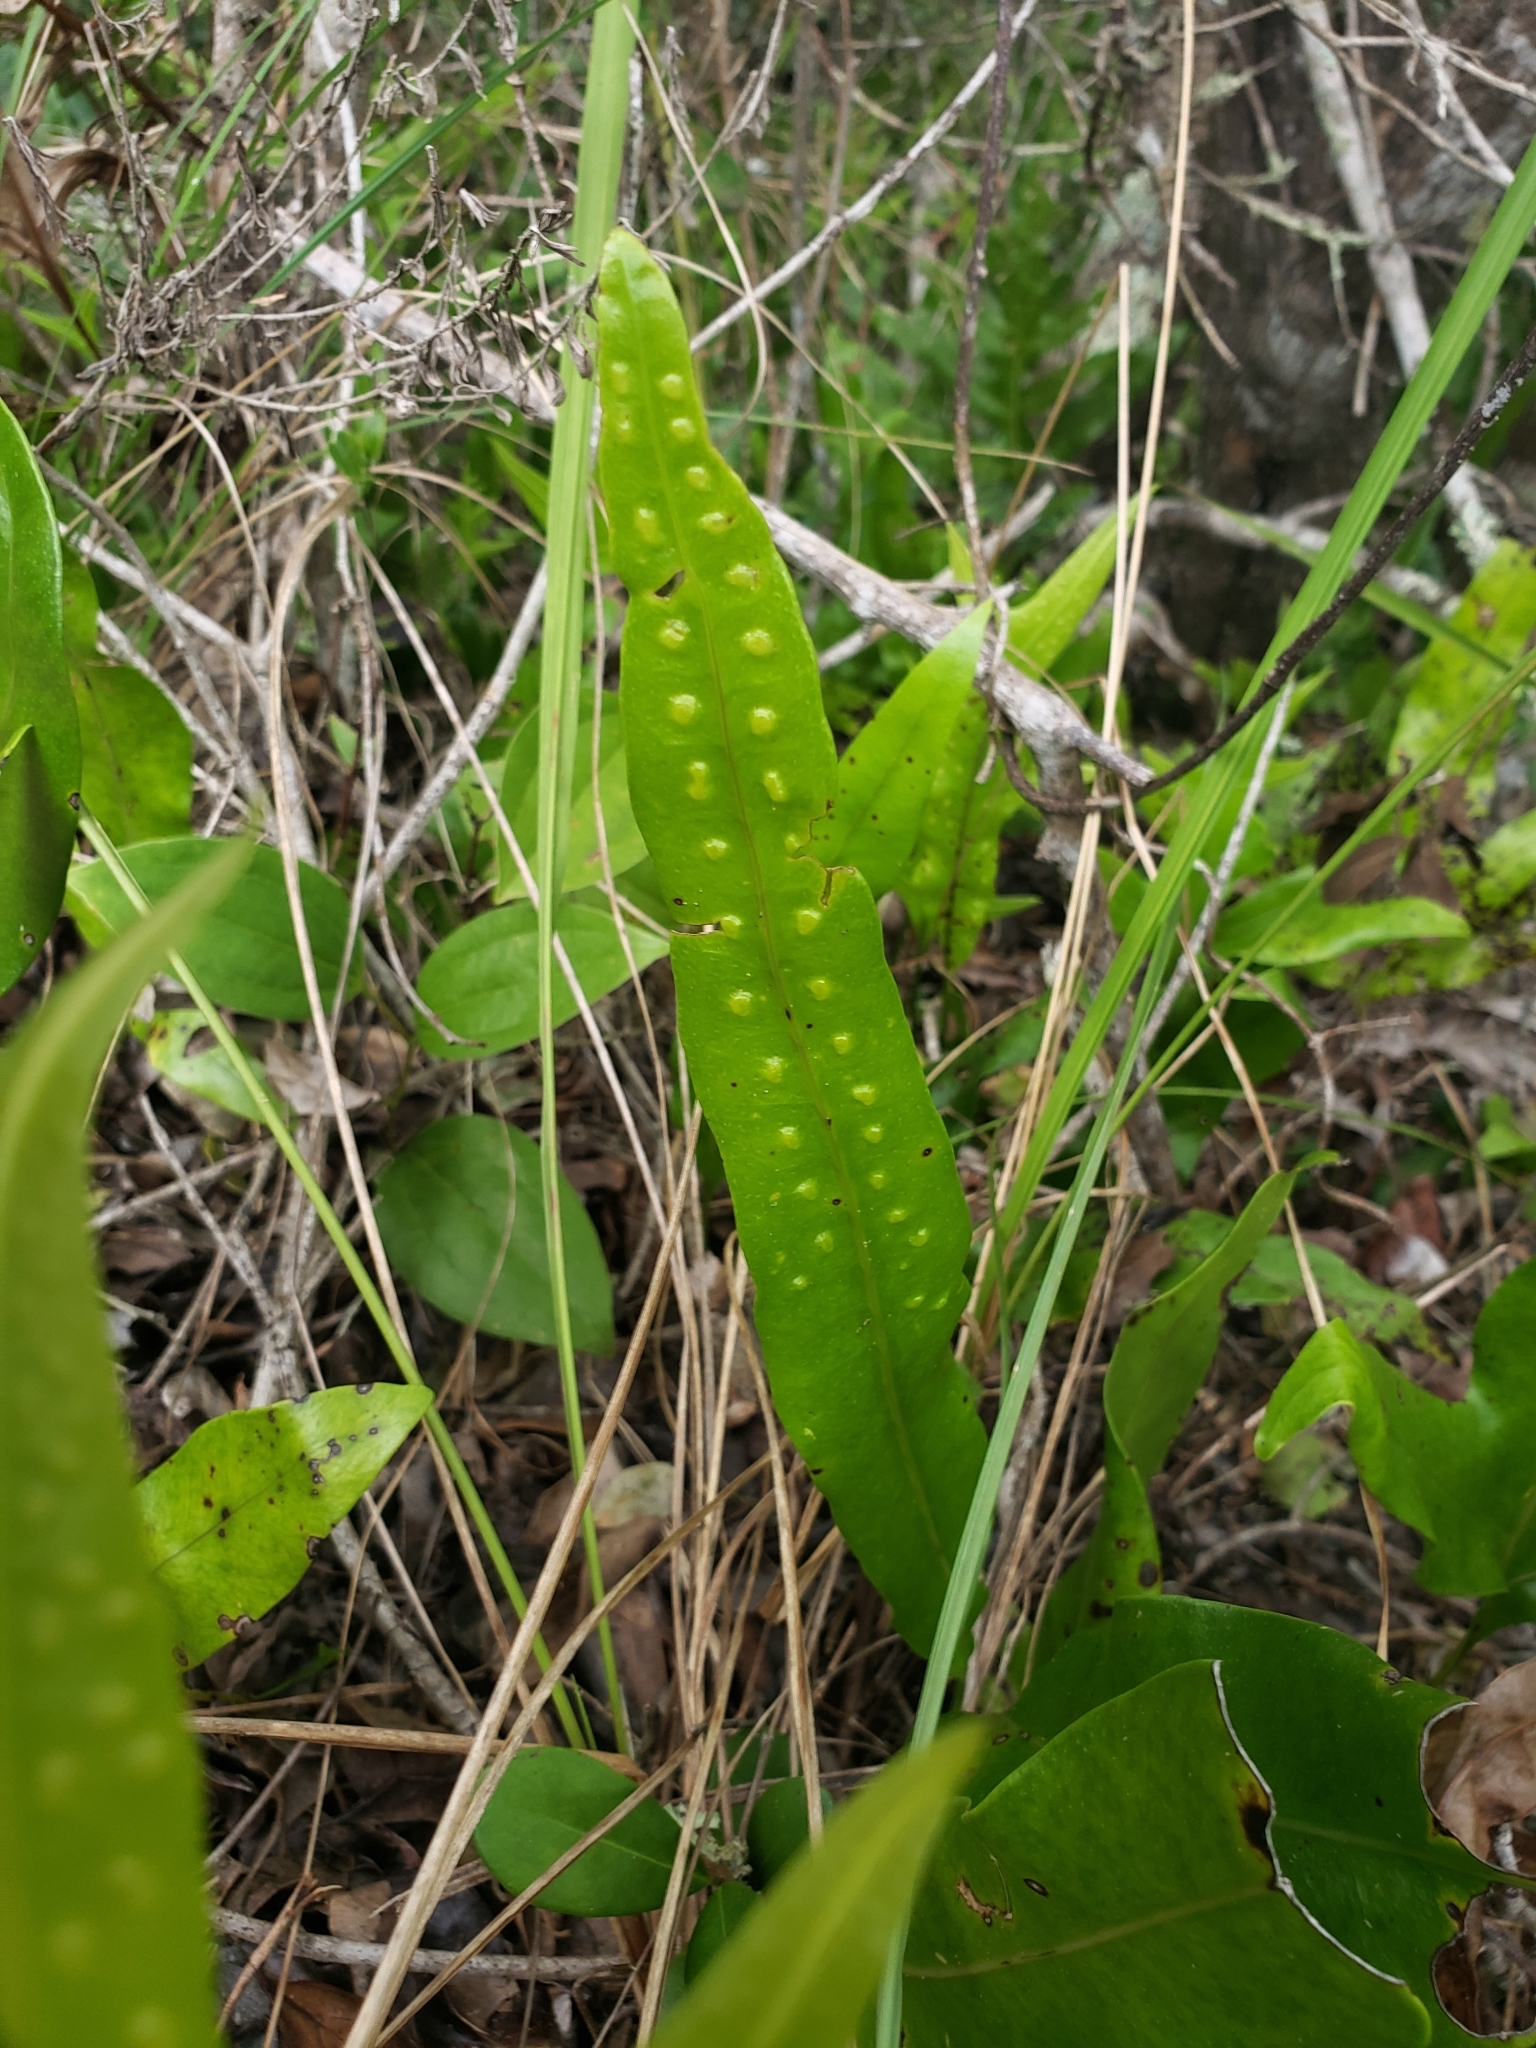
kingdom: Plantae
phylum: Tracheophyta
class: Polypodiopsida
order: Polypodiales
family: Polypodiaceae
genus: Microsorum
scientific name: Microsorum scolopendria
